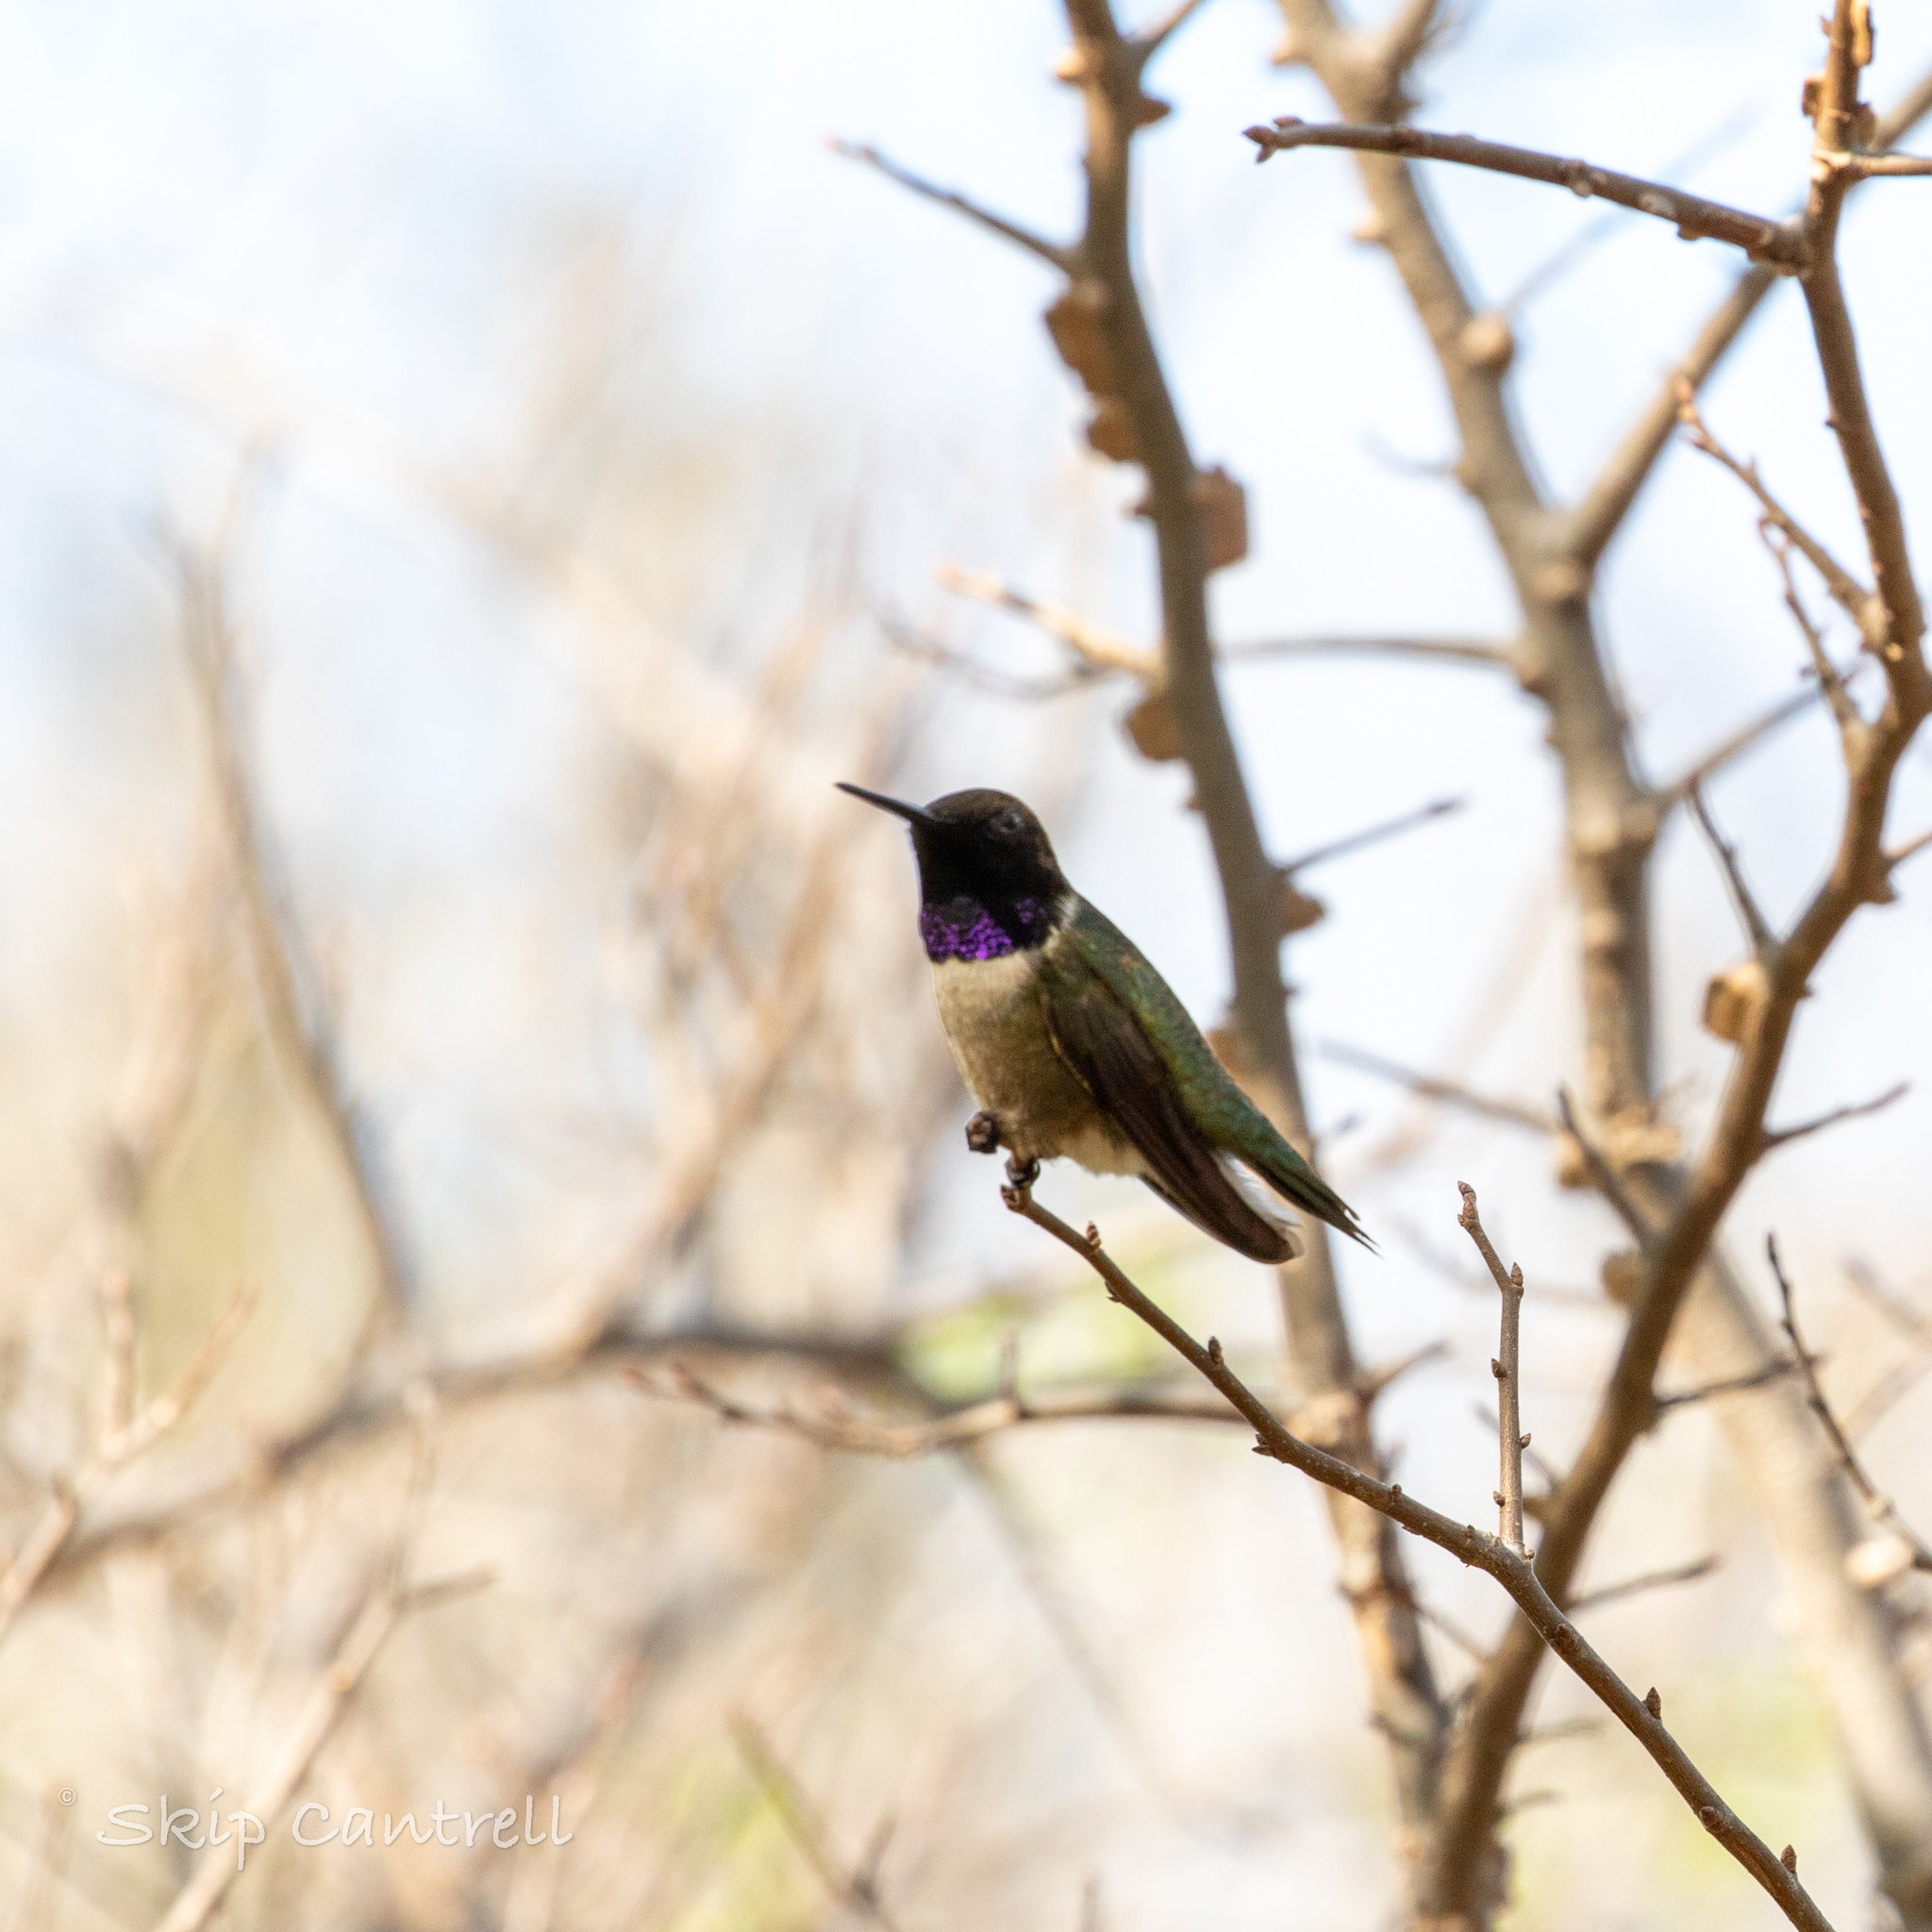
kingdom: Animalia
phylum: Chordata
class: Aves
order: Apodiformes
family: Trochilidae
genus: Archilochus
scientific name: Archilochus alexandri
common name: Black-chinned hummingbird
